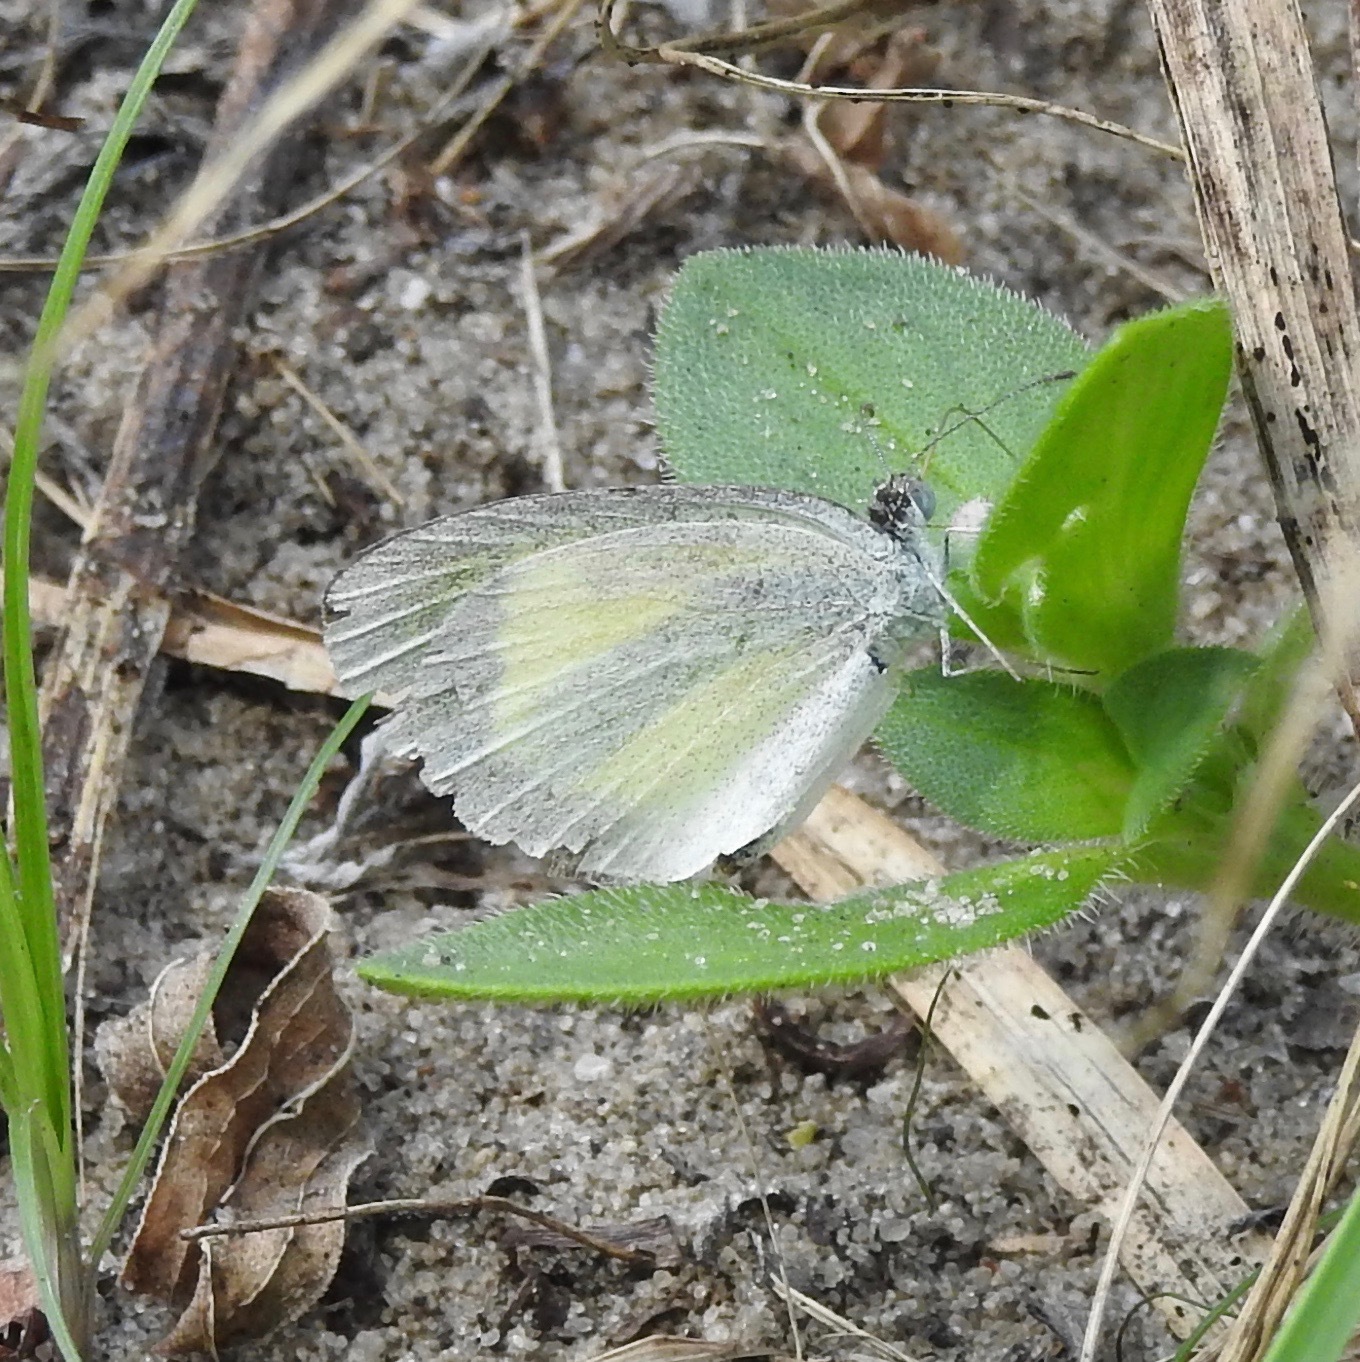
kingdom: Animalia
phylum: Arthropoda
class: Insecta
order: Lepidoptera
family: Pieridae
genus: Eurema
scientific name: Eurema daira
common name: Barred sulphur
